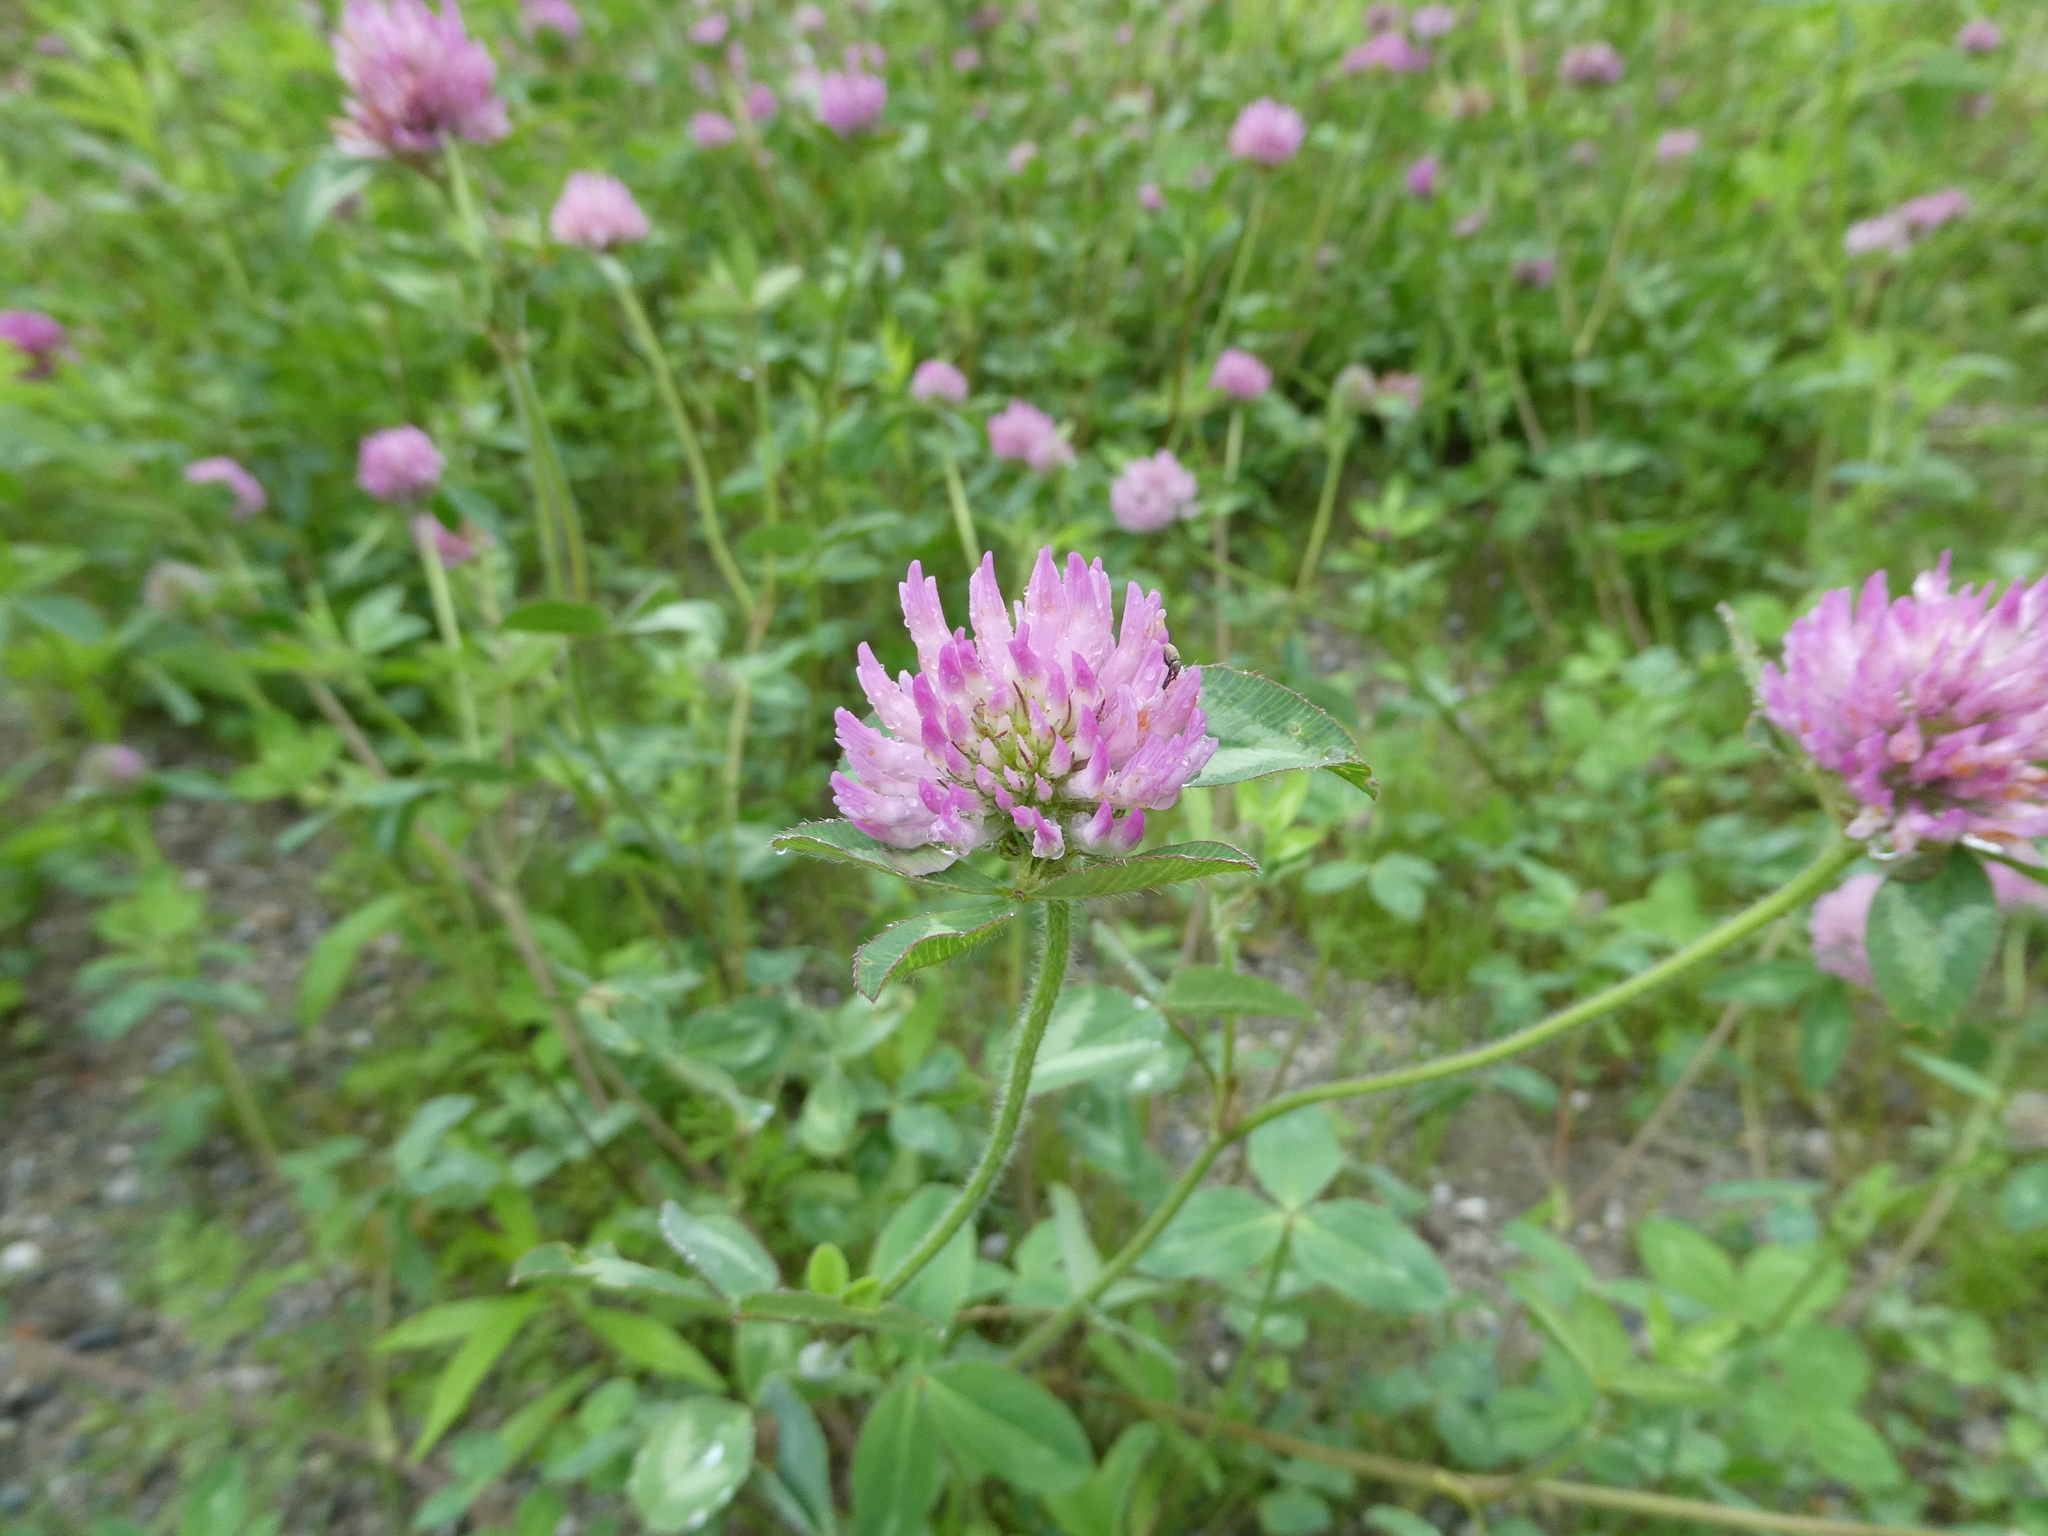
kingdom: Plantae
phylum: Tracheophyta
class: Magnoliopsida
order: Fabales
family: Fabaceae
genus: Trifolium
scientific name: Trifolium pratense
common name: Red clover
